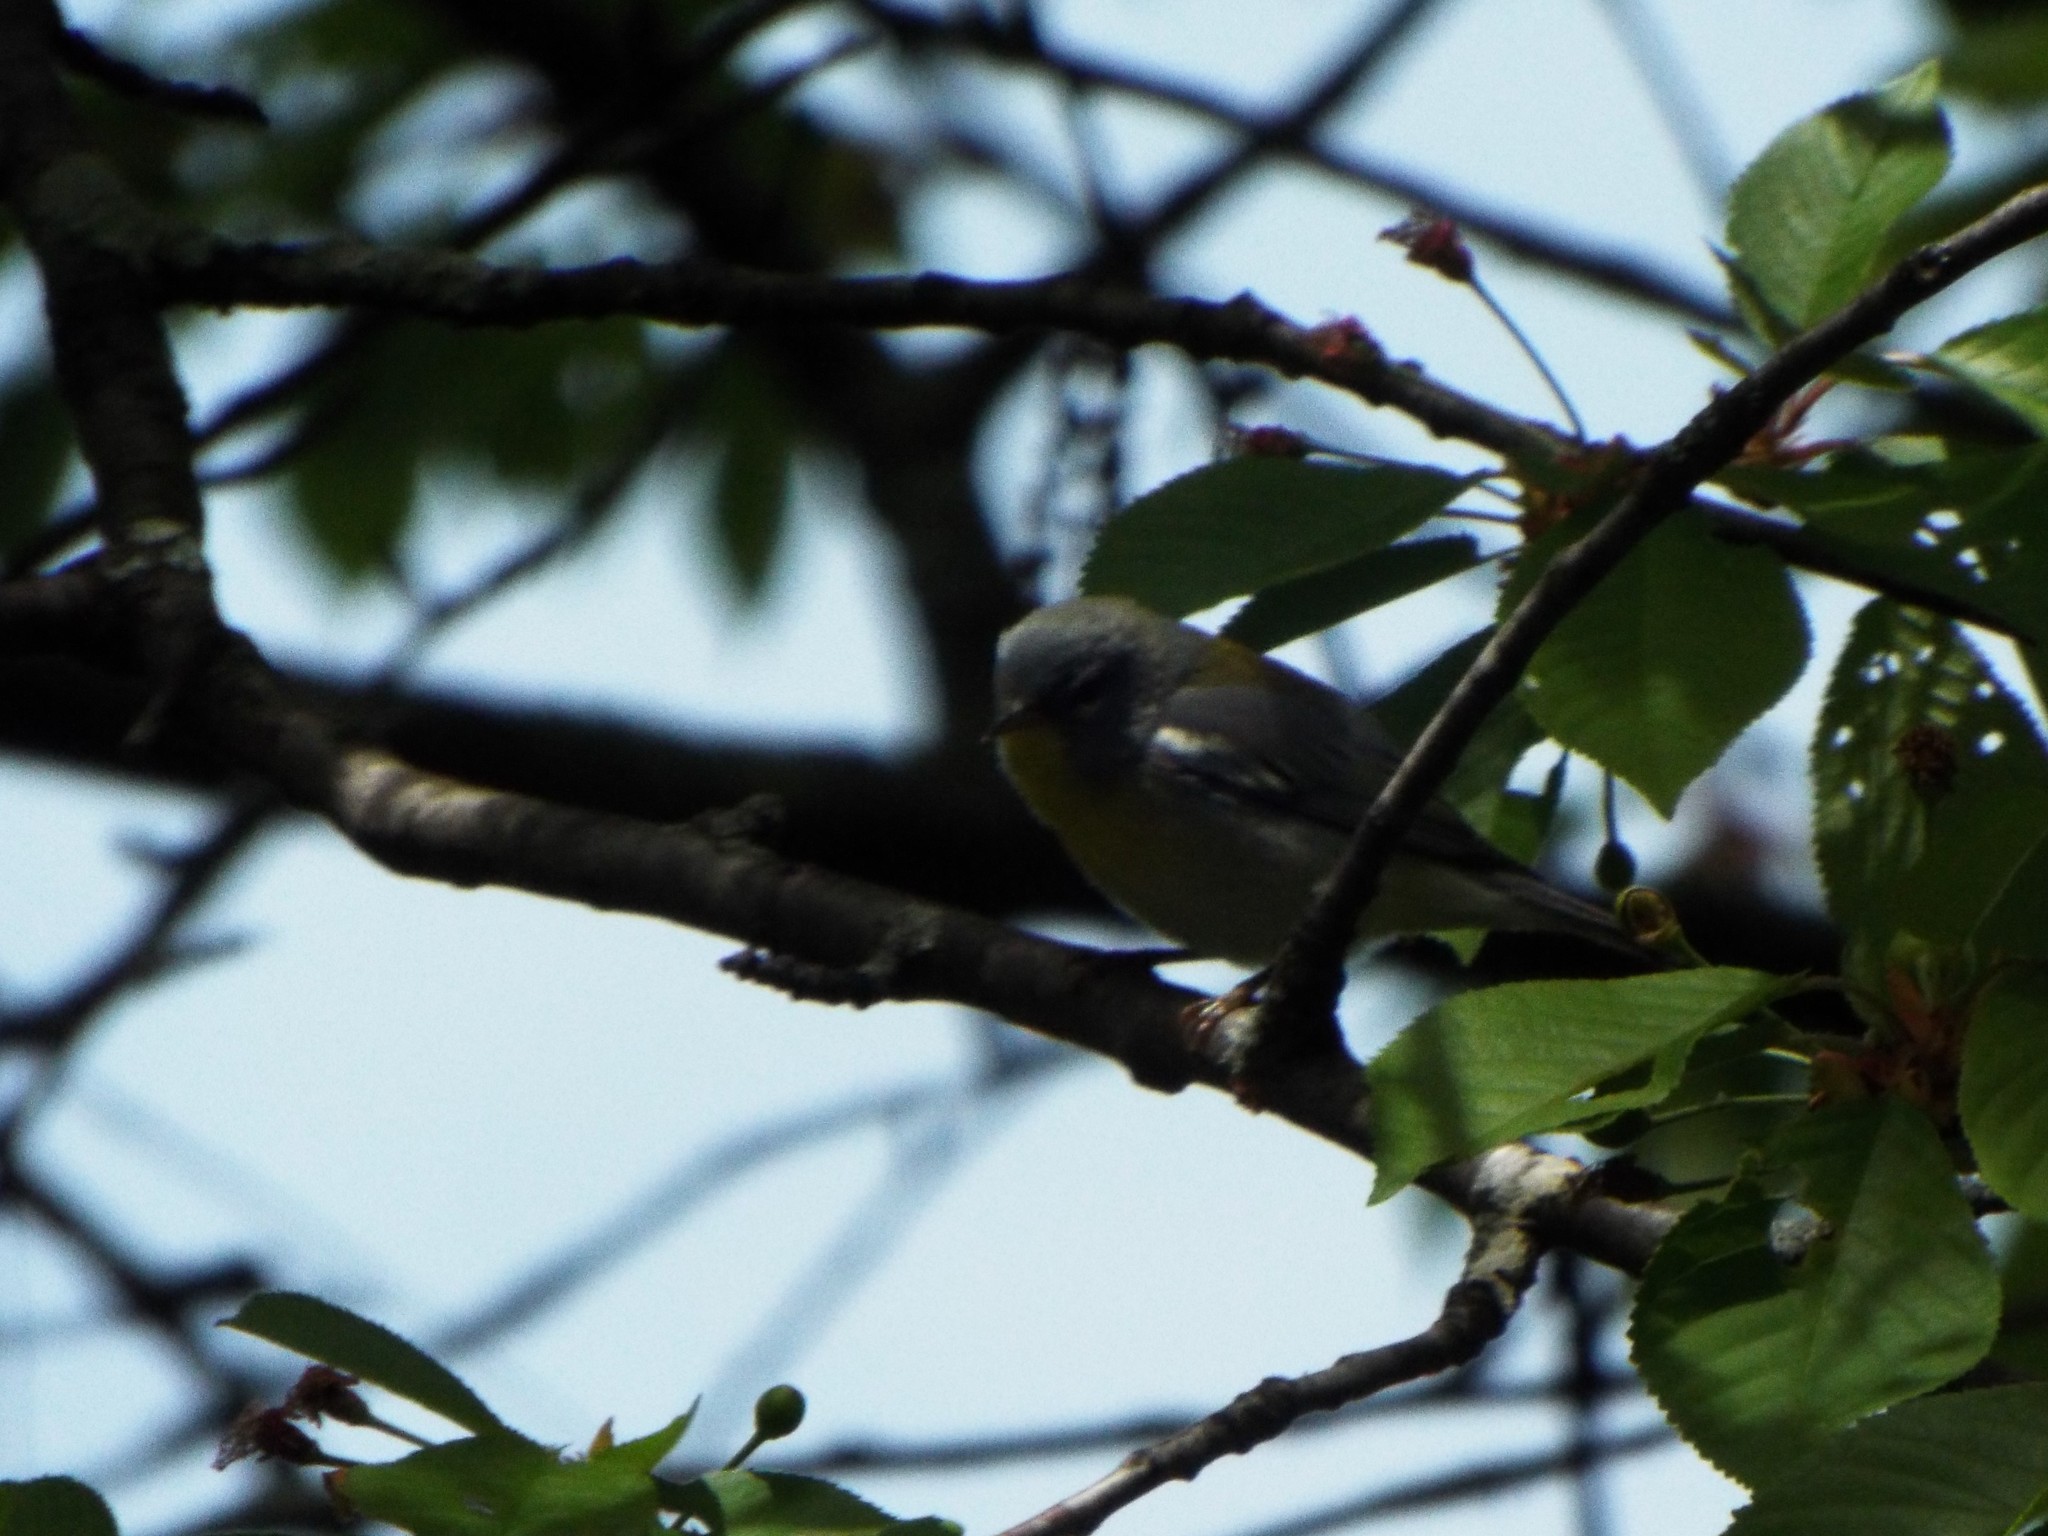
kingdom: Animalia
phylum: Chordata
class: Aves
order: Passeriformes
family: Parulidae
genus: Setophaga
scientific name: Setophaga americana
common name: Northern parula
